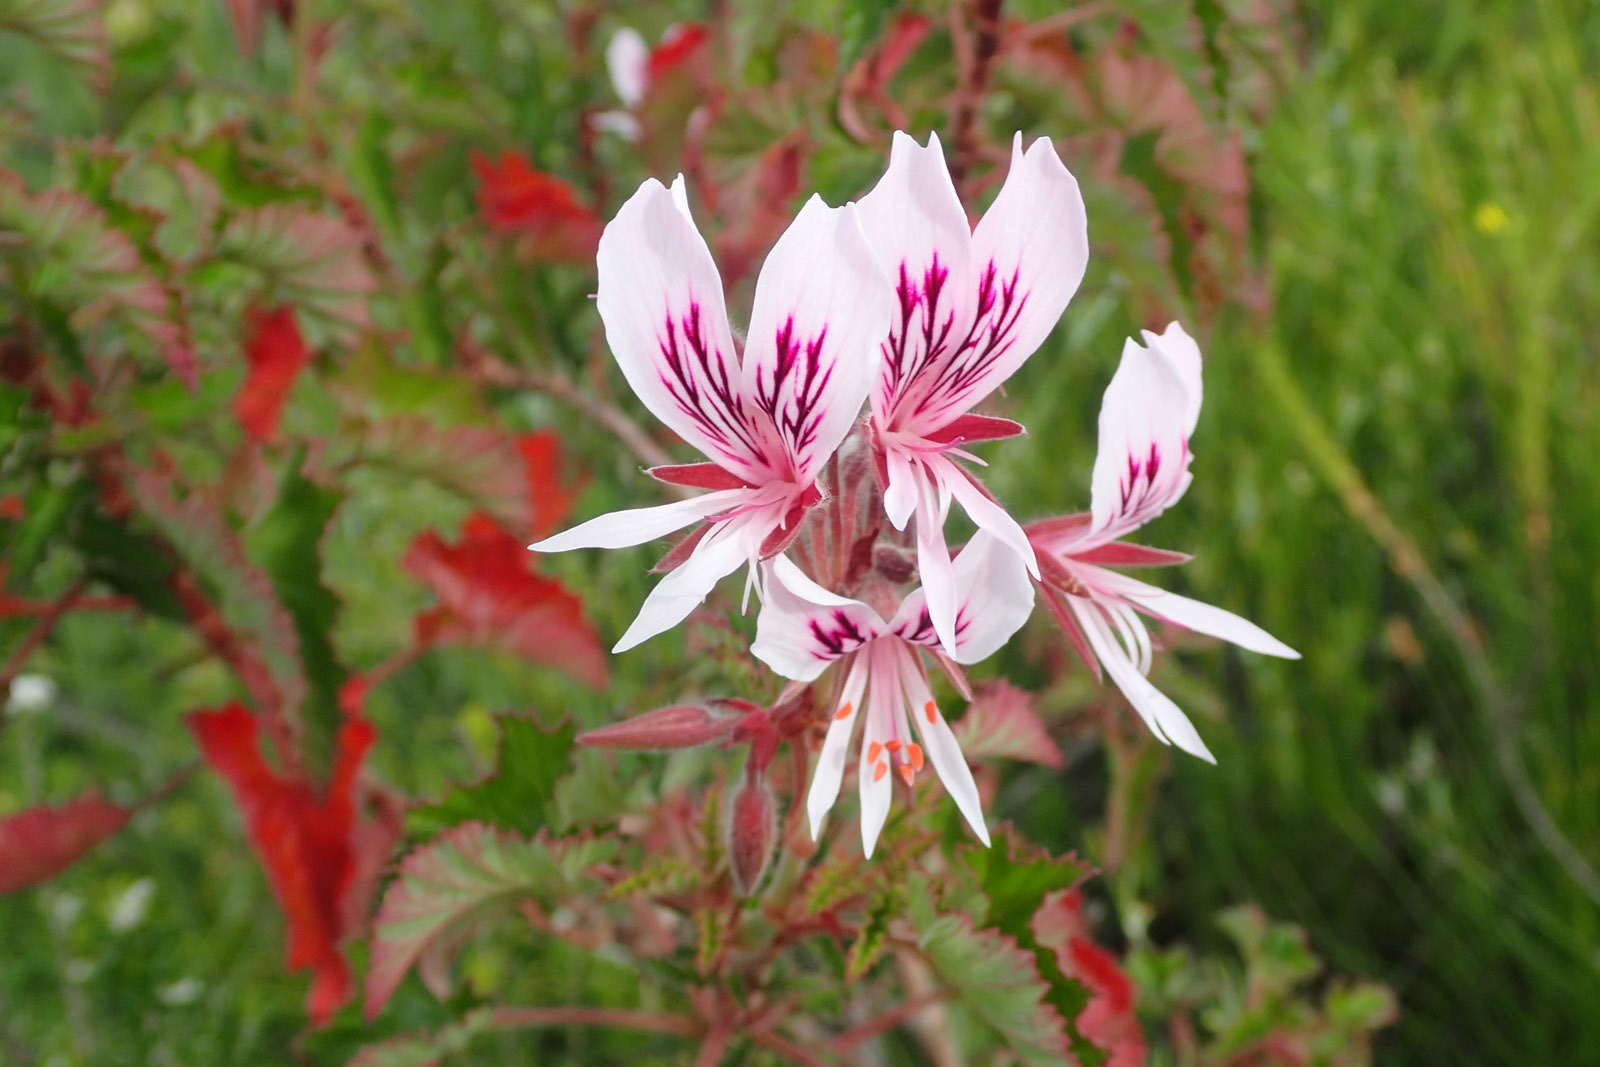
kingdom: Plantae
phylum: Tracheophyta
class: Magnoliopsida
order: Geraniales
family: Geraniaceae
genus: Pelargonium
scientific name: Pelargonium cordifolium
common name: Heart-leaf pelargonium
